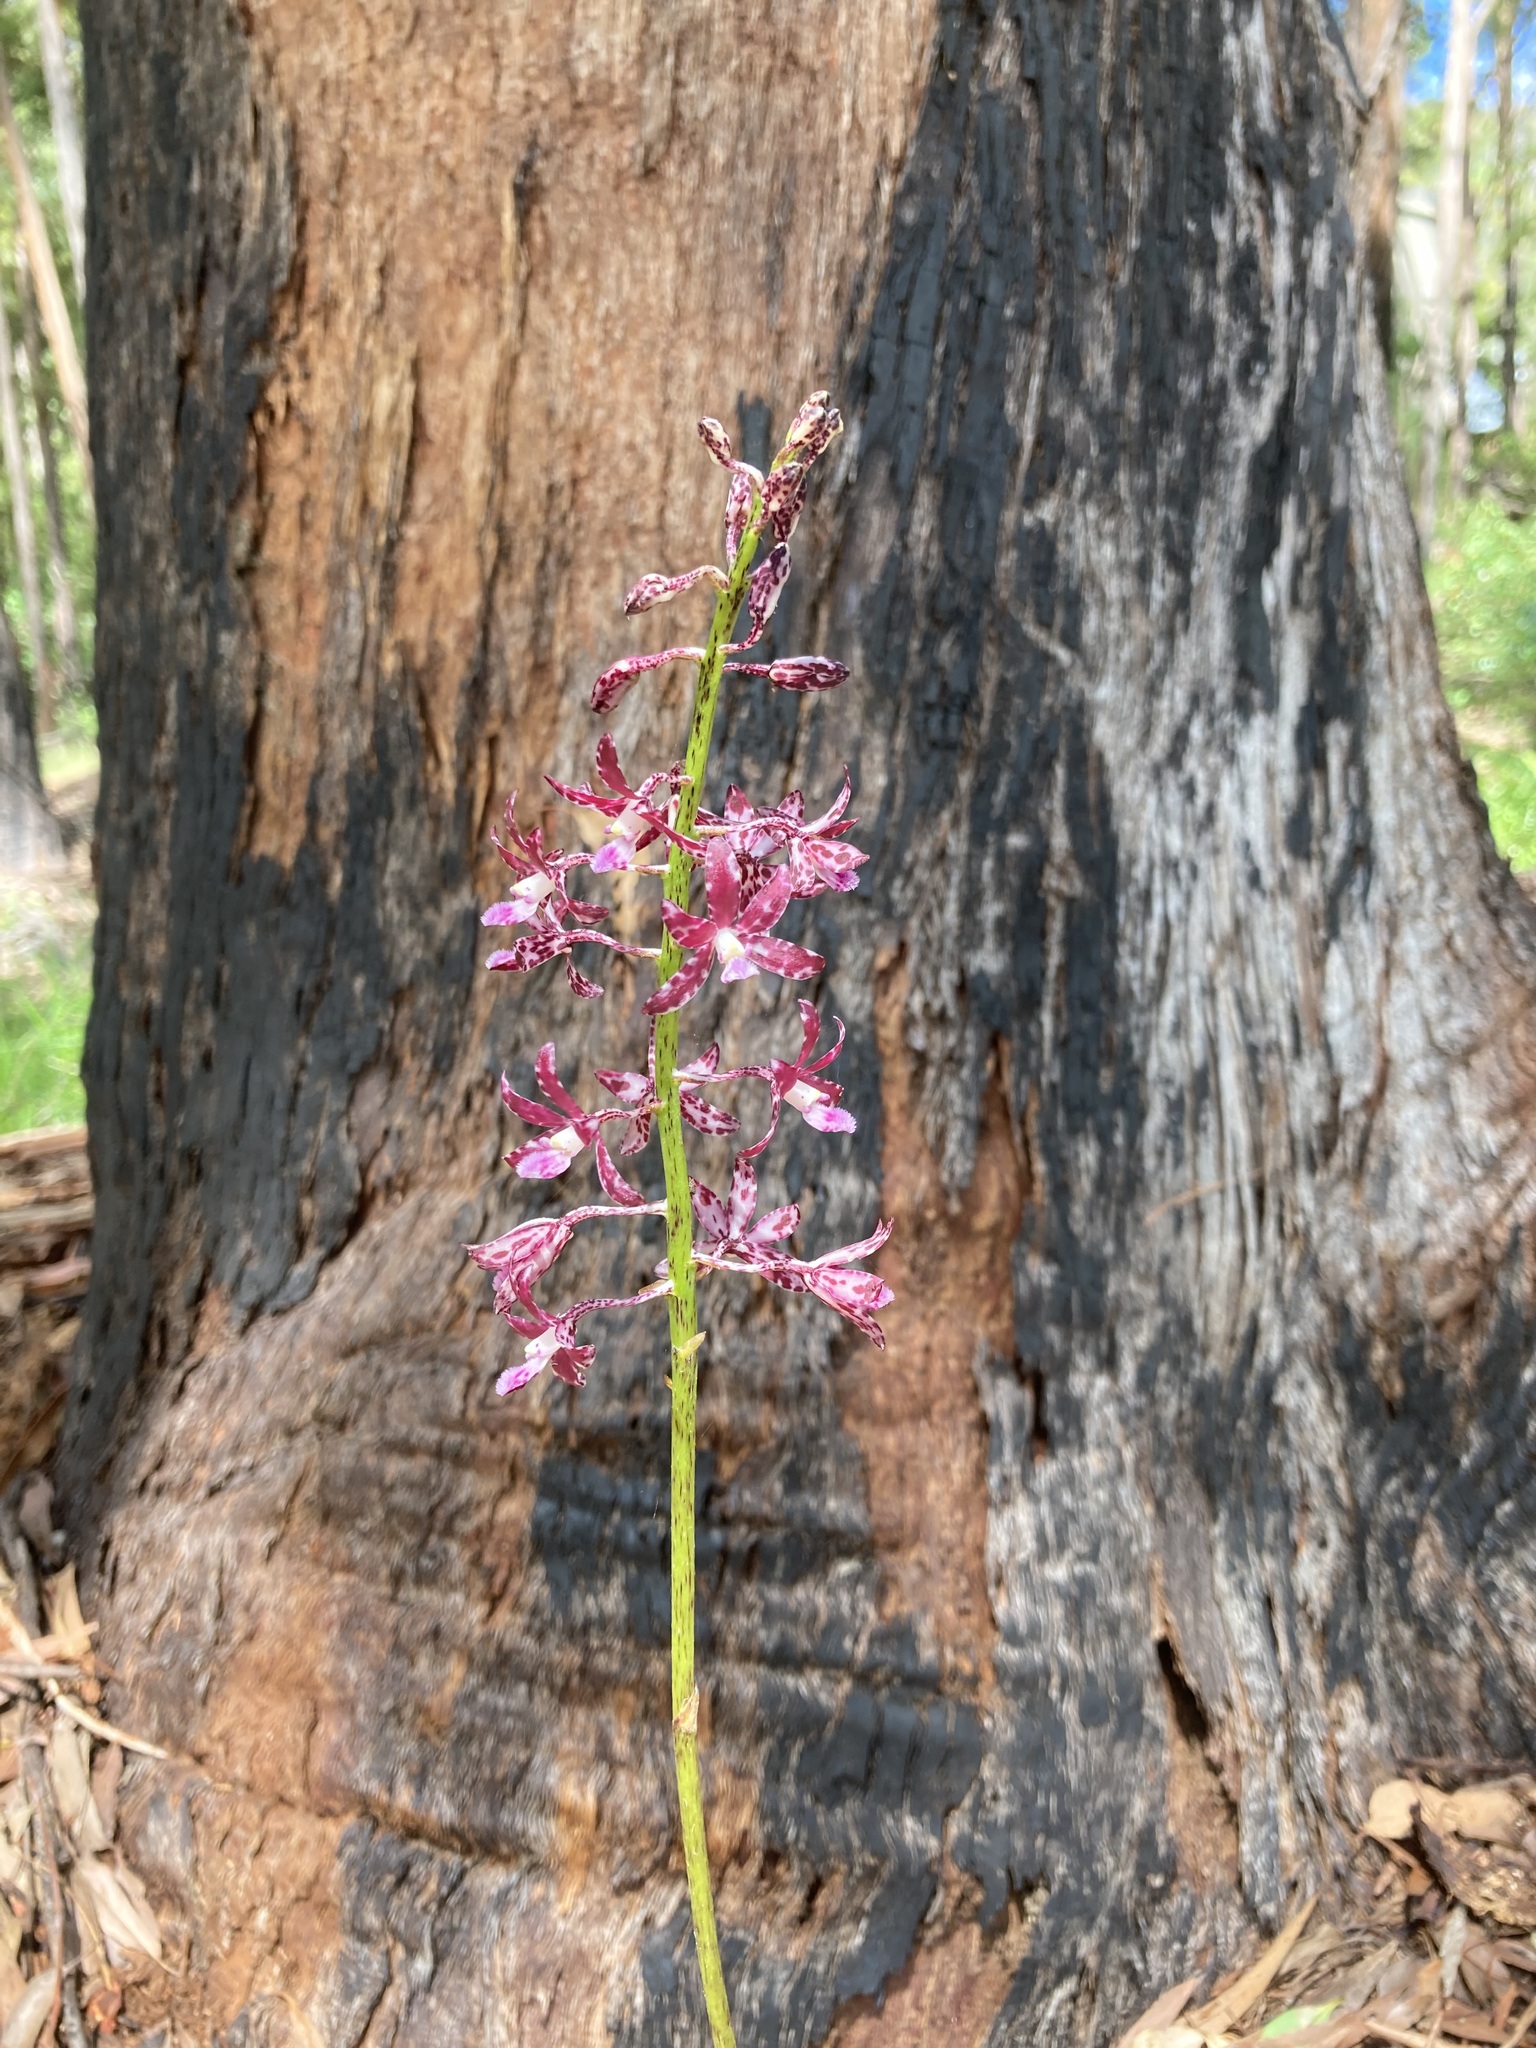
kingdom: Plantae
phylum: Tracheophyta
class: Liliopsida
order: Asparagales
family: Orchidaceae
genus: Dipodium
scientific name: Dipodium variegatum
